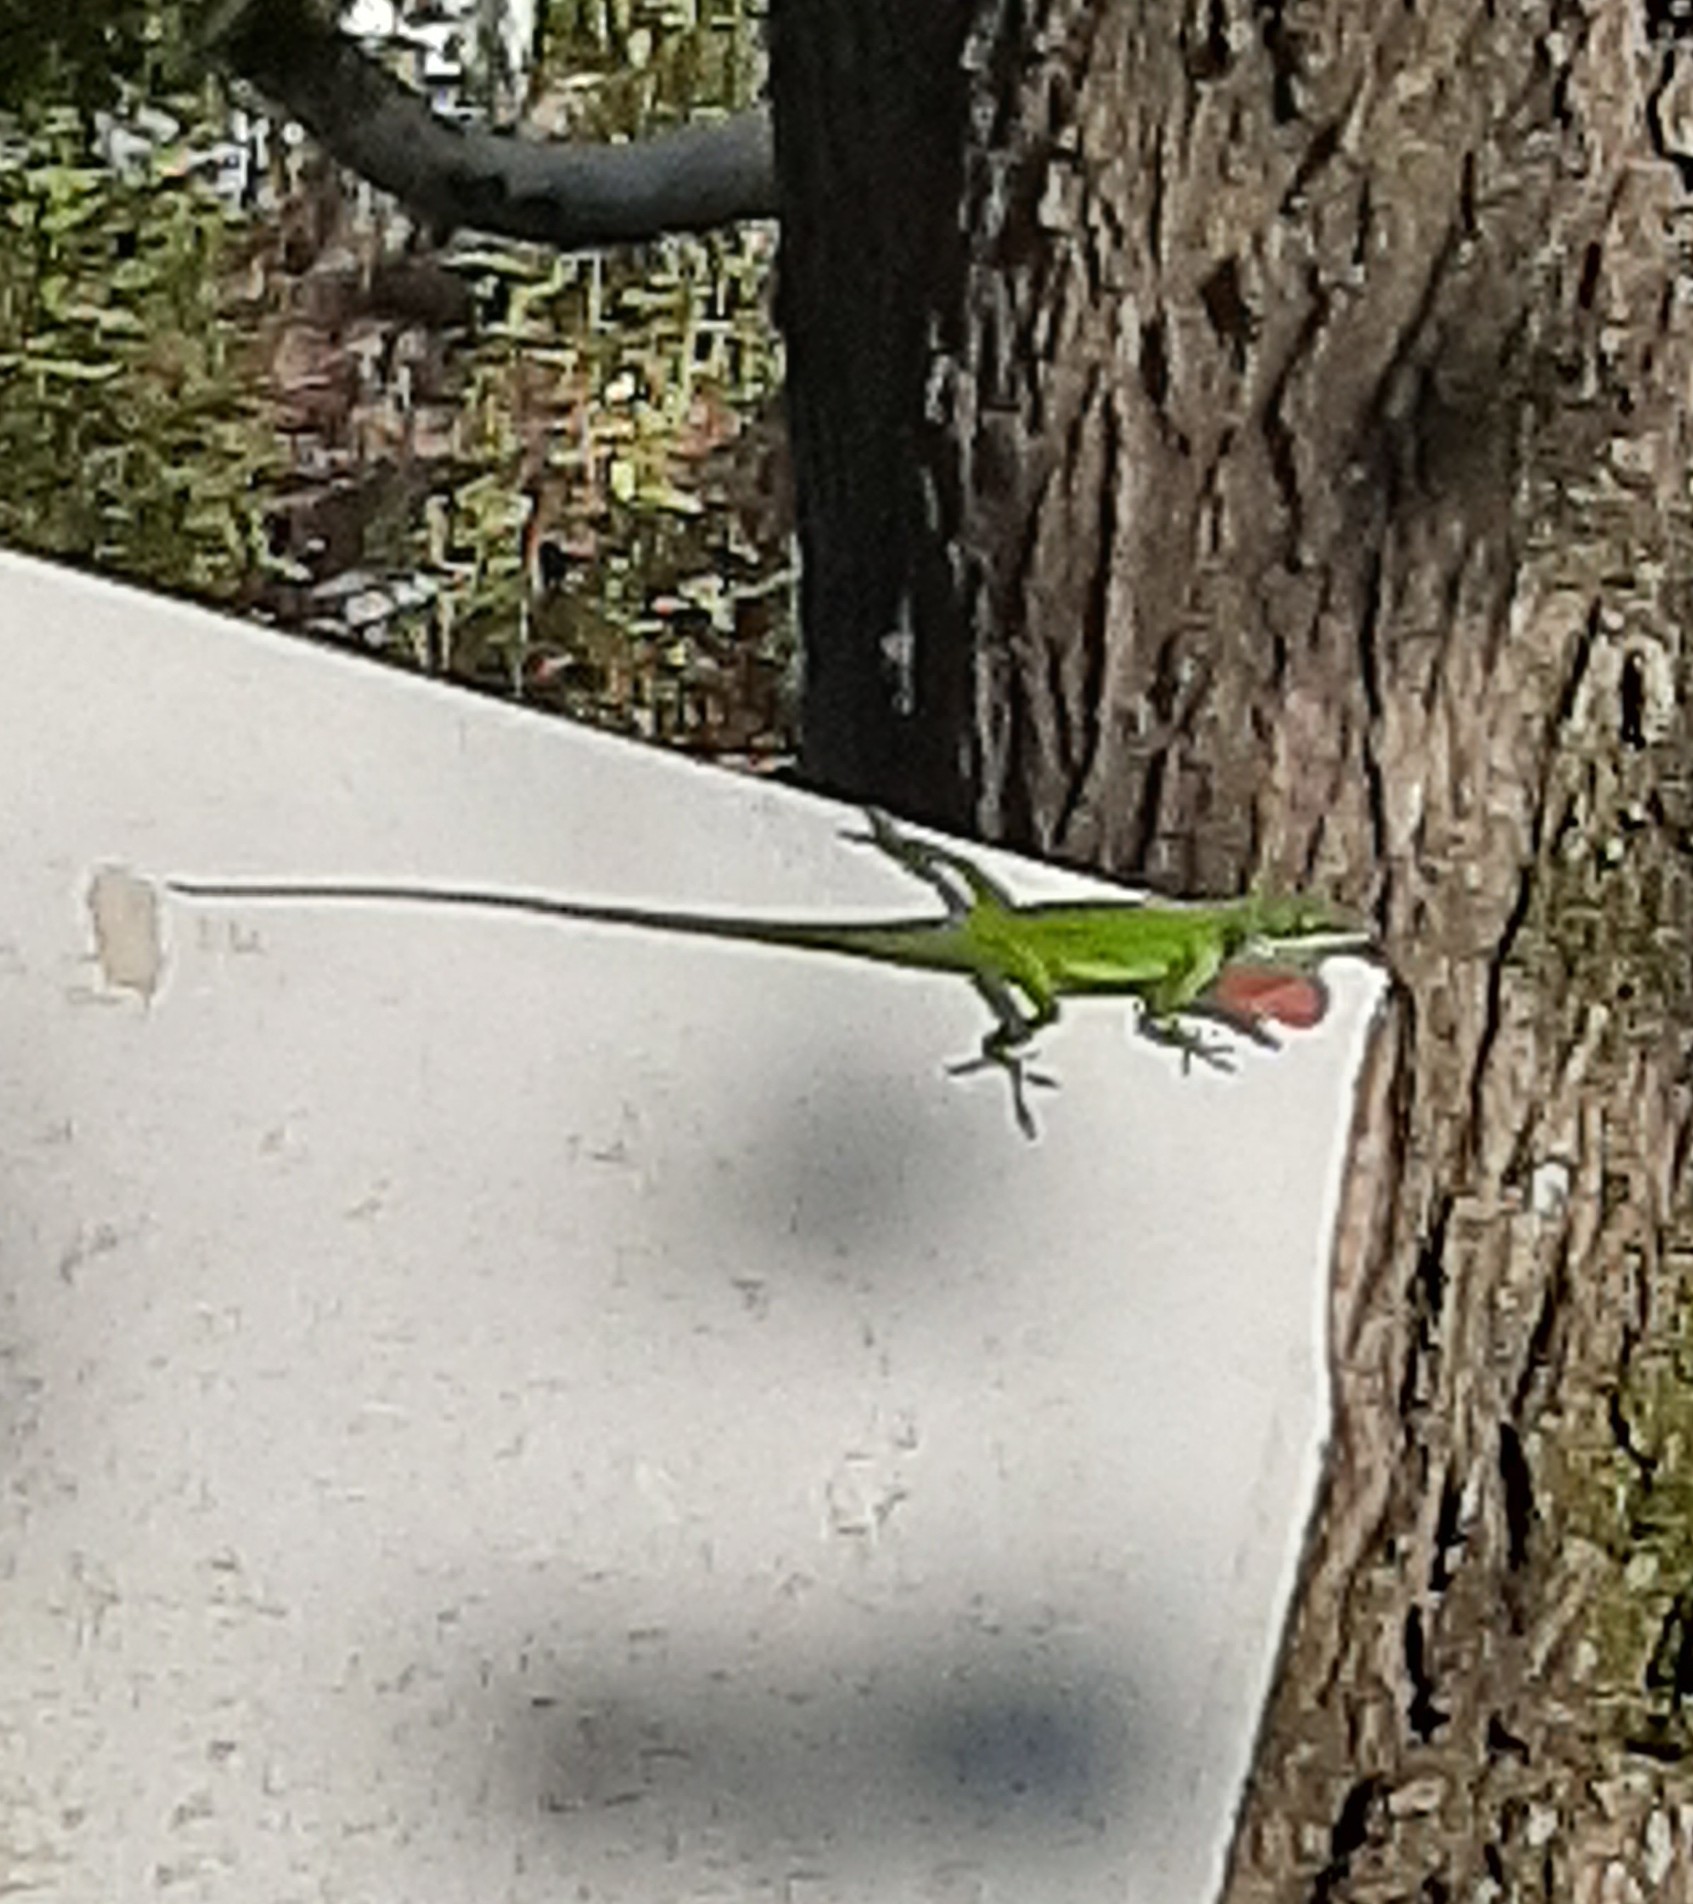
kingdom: Animalia
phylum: Chordata
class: Squamata
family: Dactyloidae
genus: Anolis
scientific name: Anolis carolinensis
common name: Green anole
